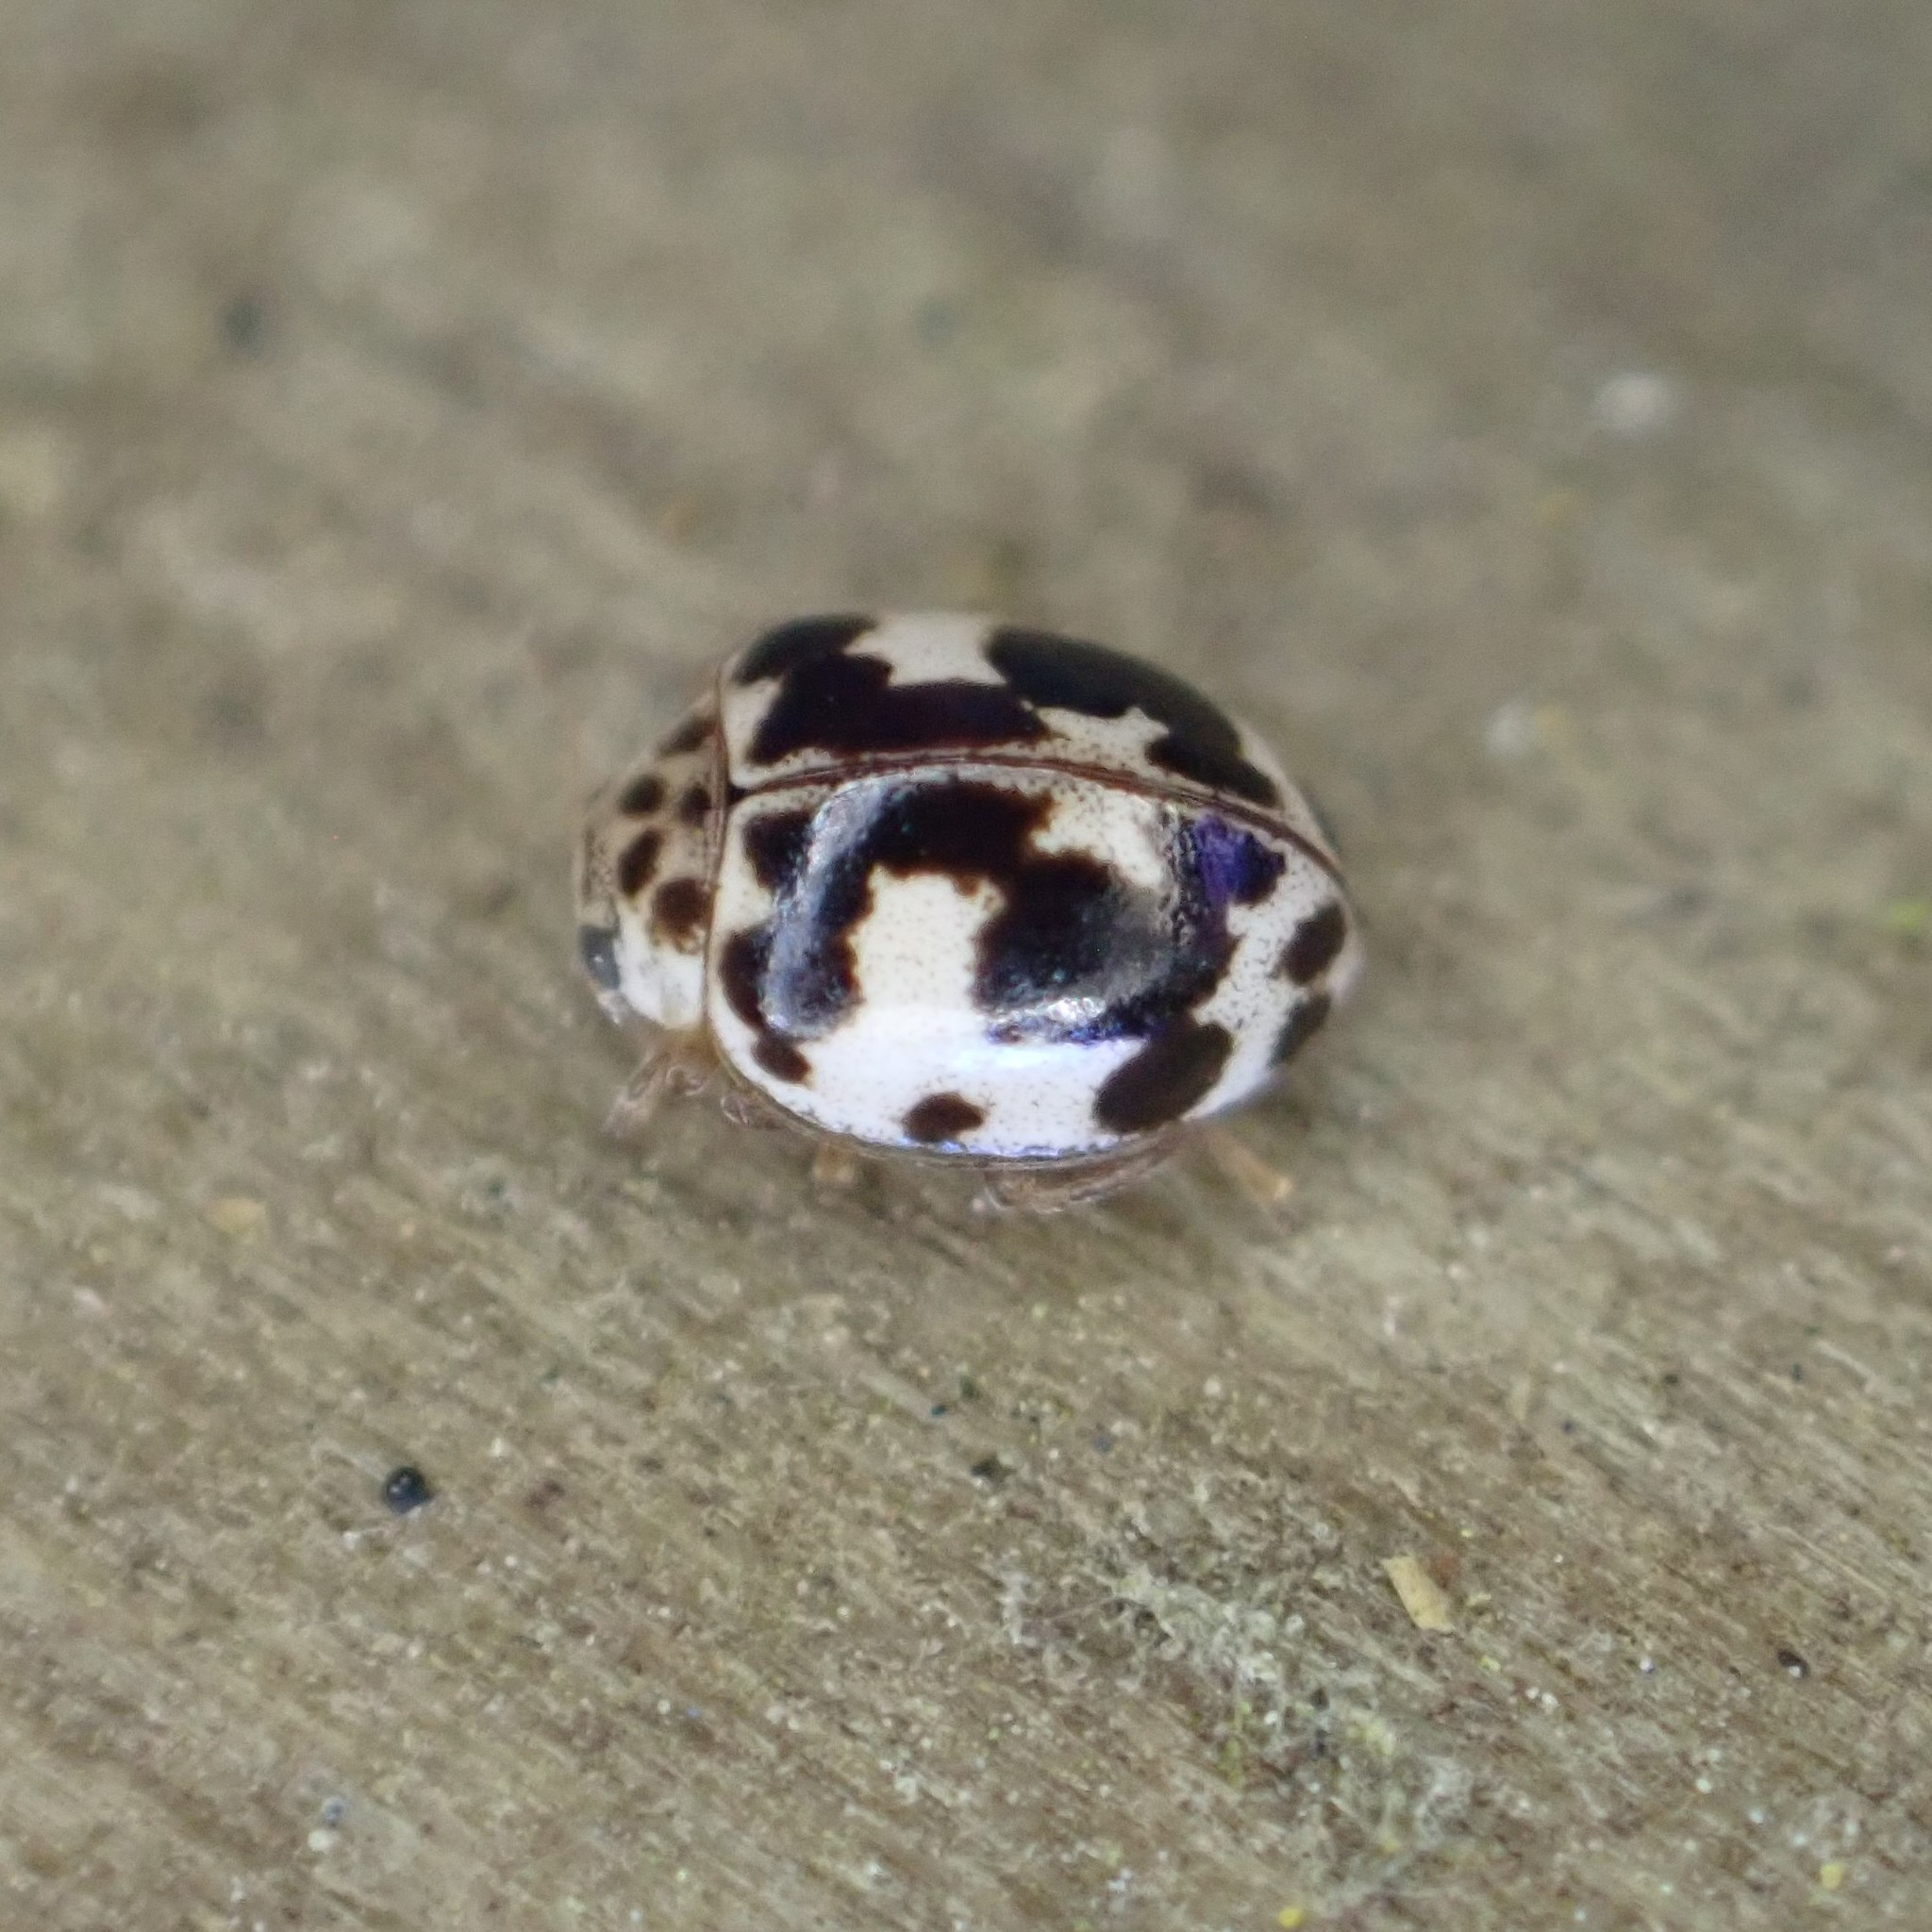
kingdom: Animalia
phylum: Arthropoda
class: Insecta
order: Coleoptera
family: Coccinellidae
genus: Psyllobora
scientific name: Psyllobora borealis
